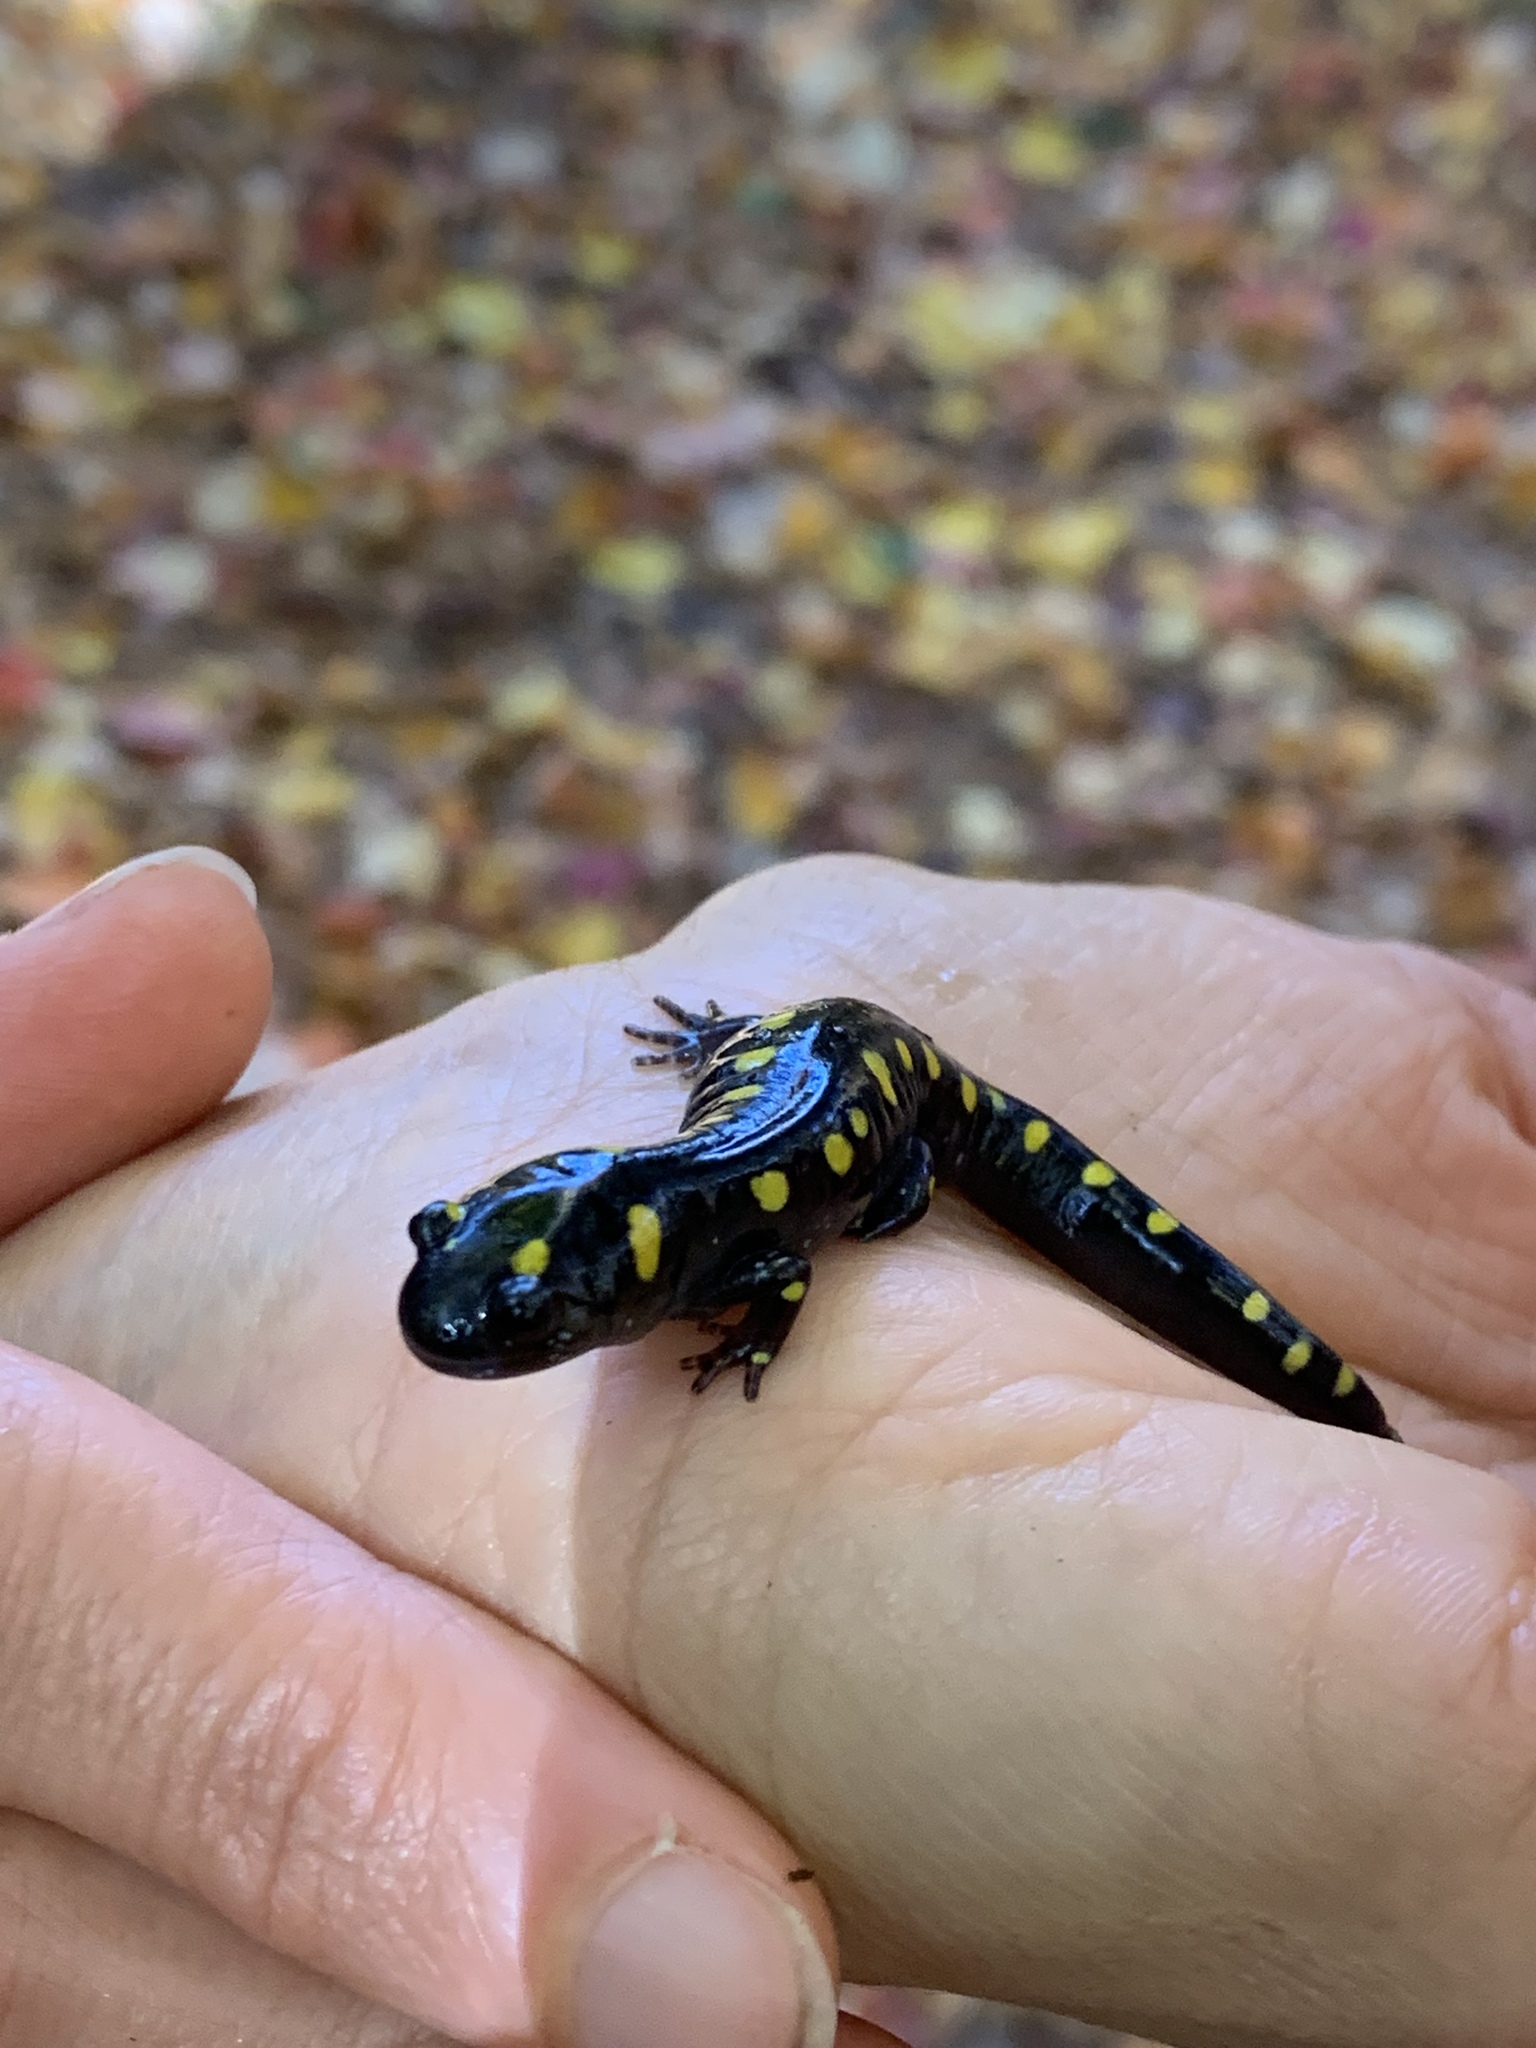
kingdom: Animalia
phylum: Chordata
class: Amphibia
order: Caudata
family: Ambystomatidae
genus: Ambystoma
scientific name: Ambystoma maculatum
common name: Spotted salamander
